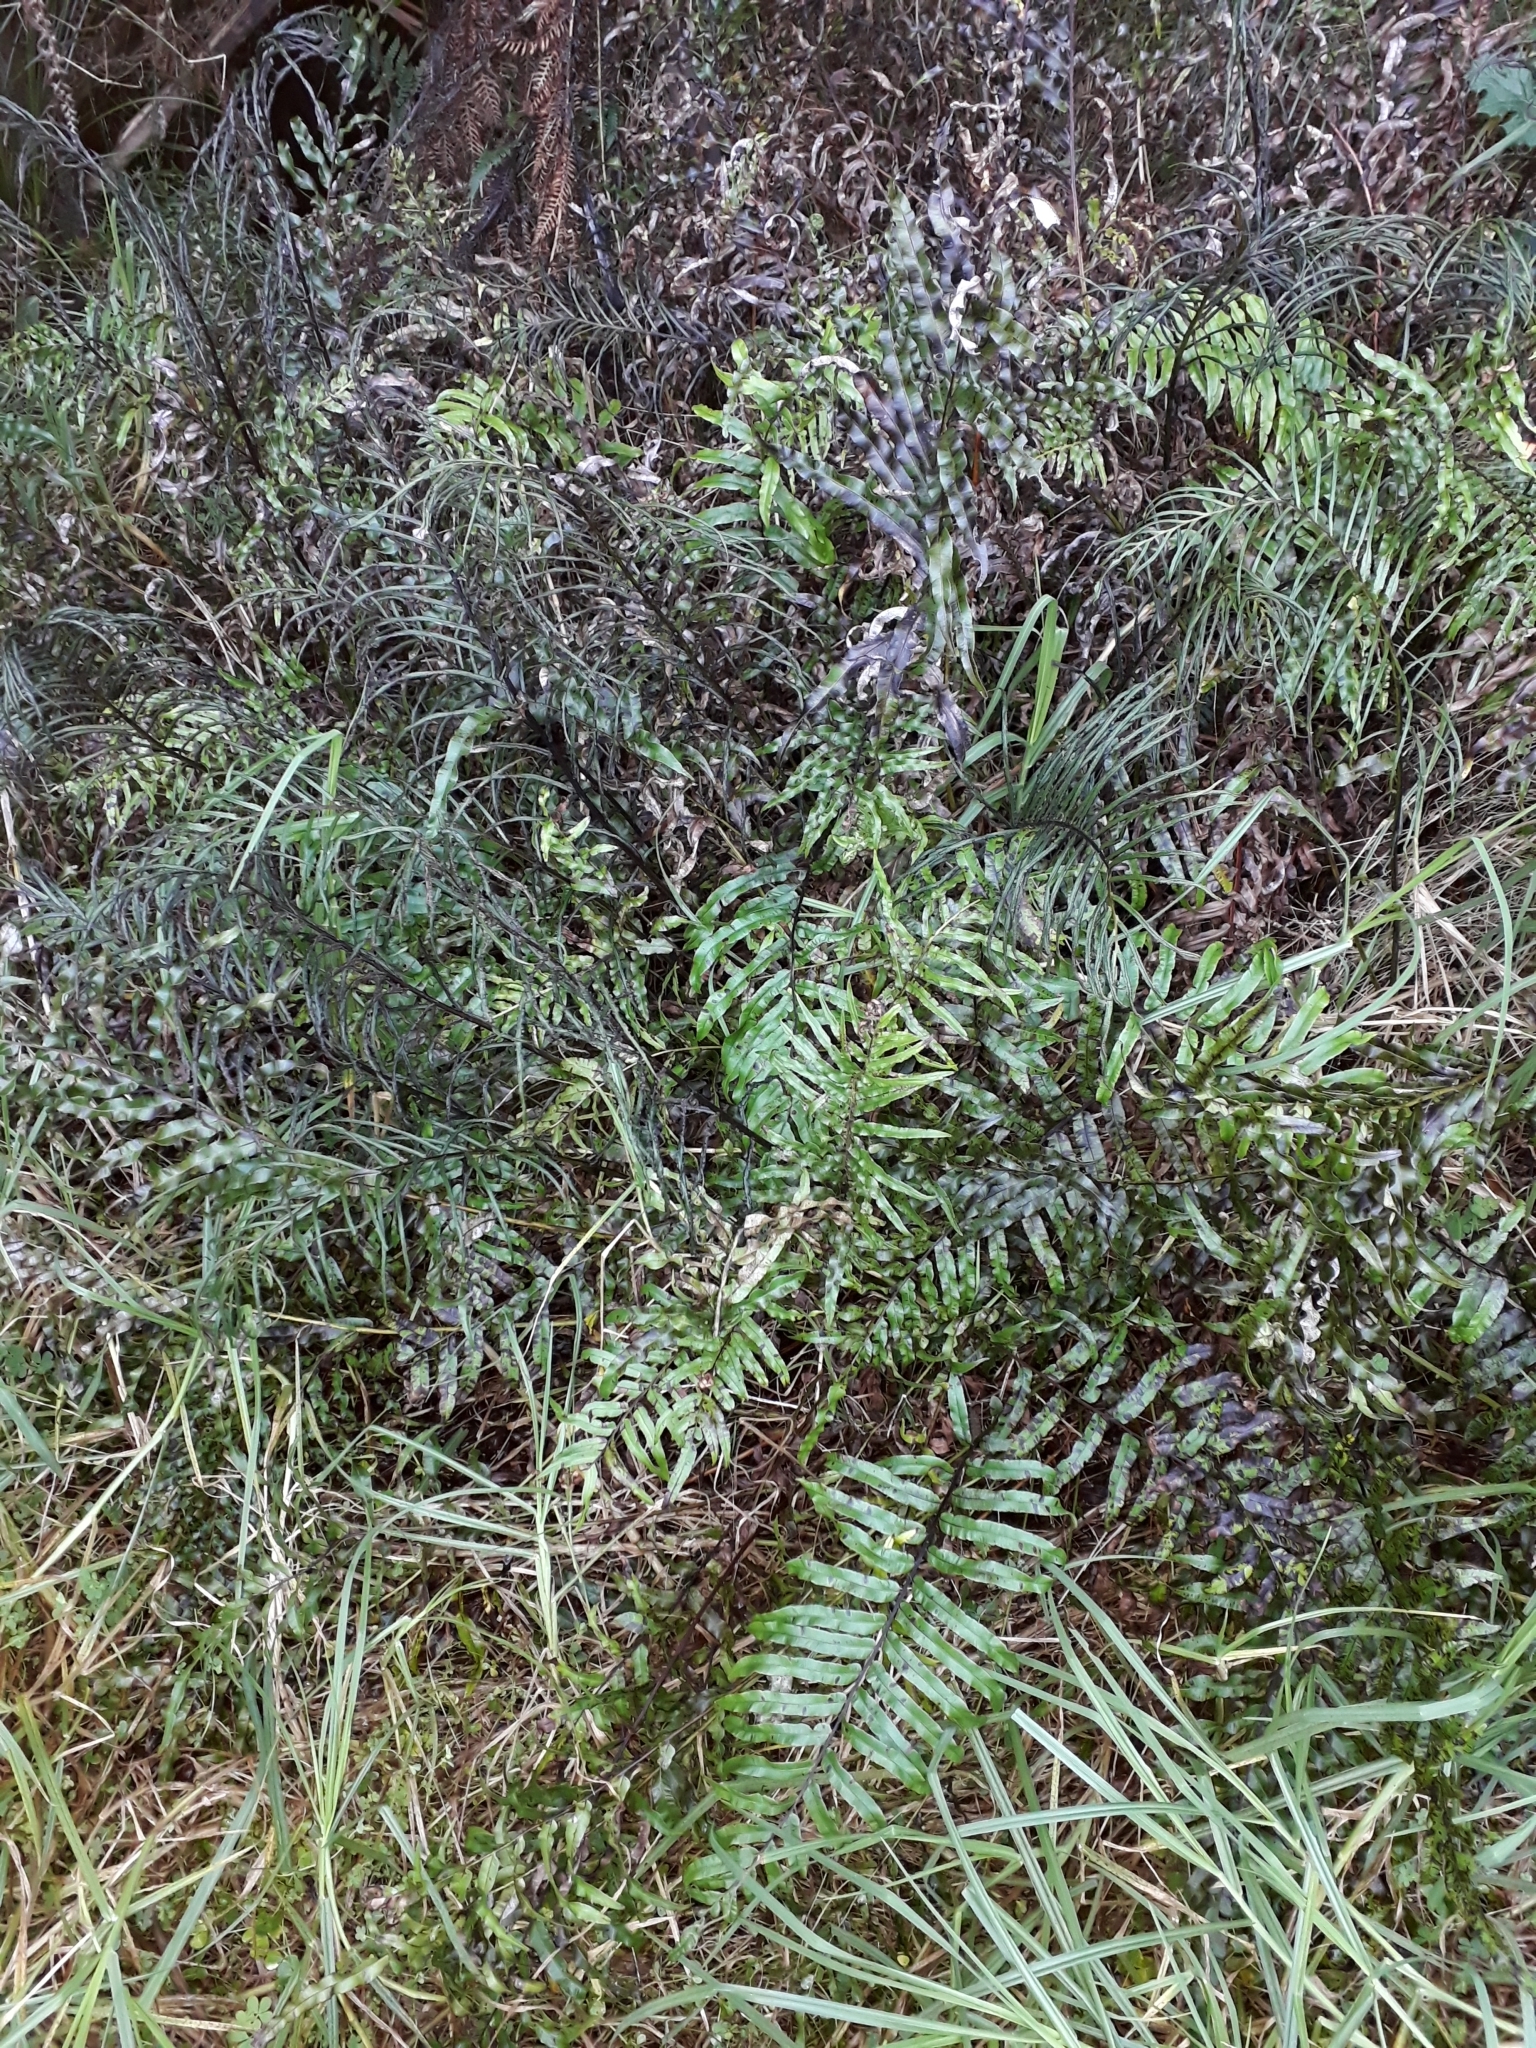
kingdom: Plantae
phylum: Tracheophyta
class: Polypodiopsida
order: Polypodiales
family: Blechnaceae
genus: Parablechnum
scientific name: Parablechnum minus
